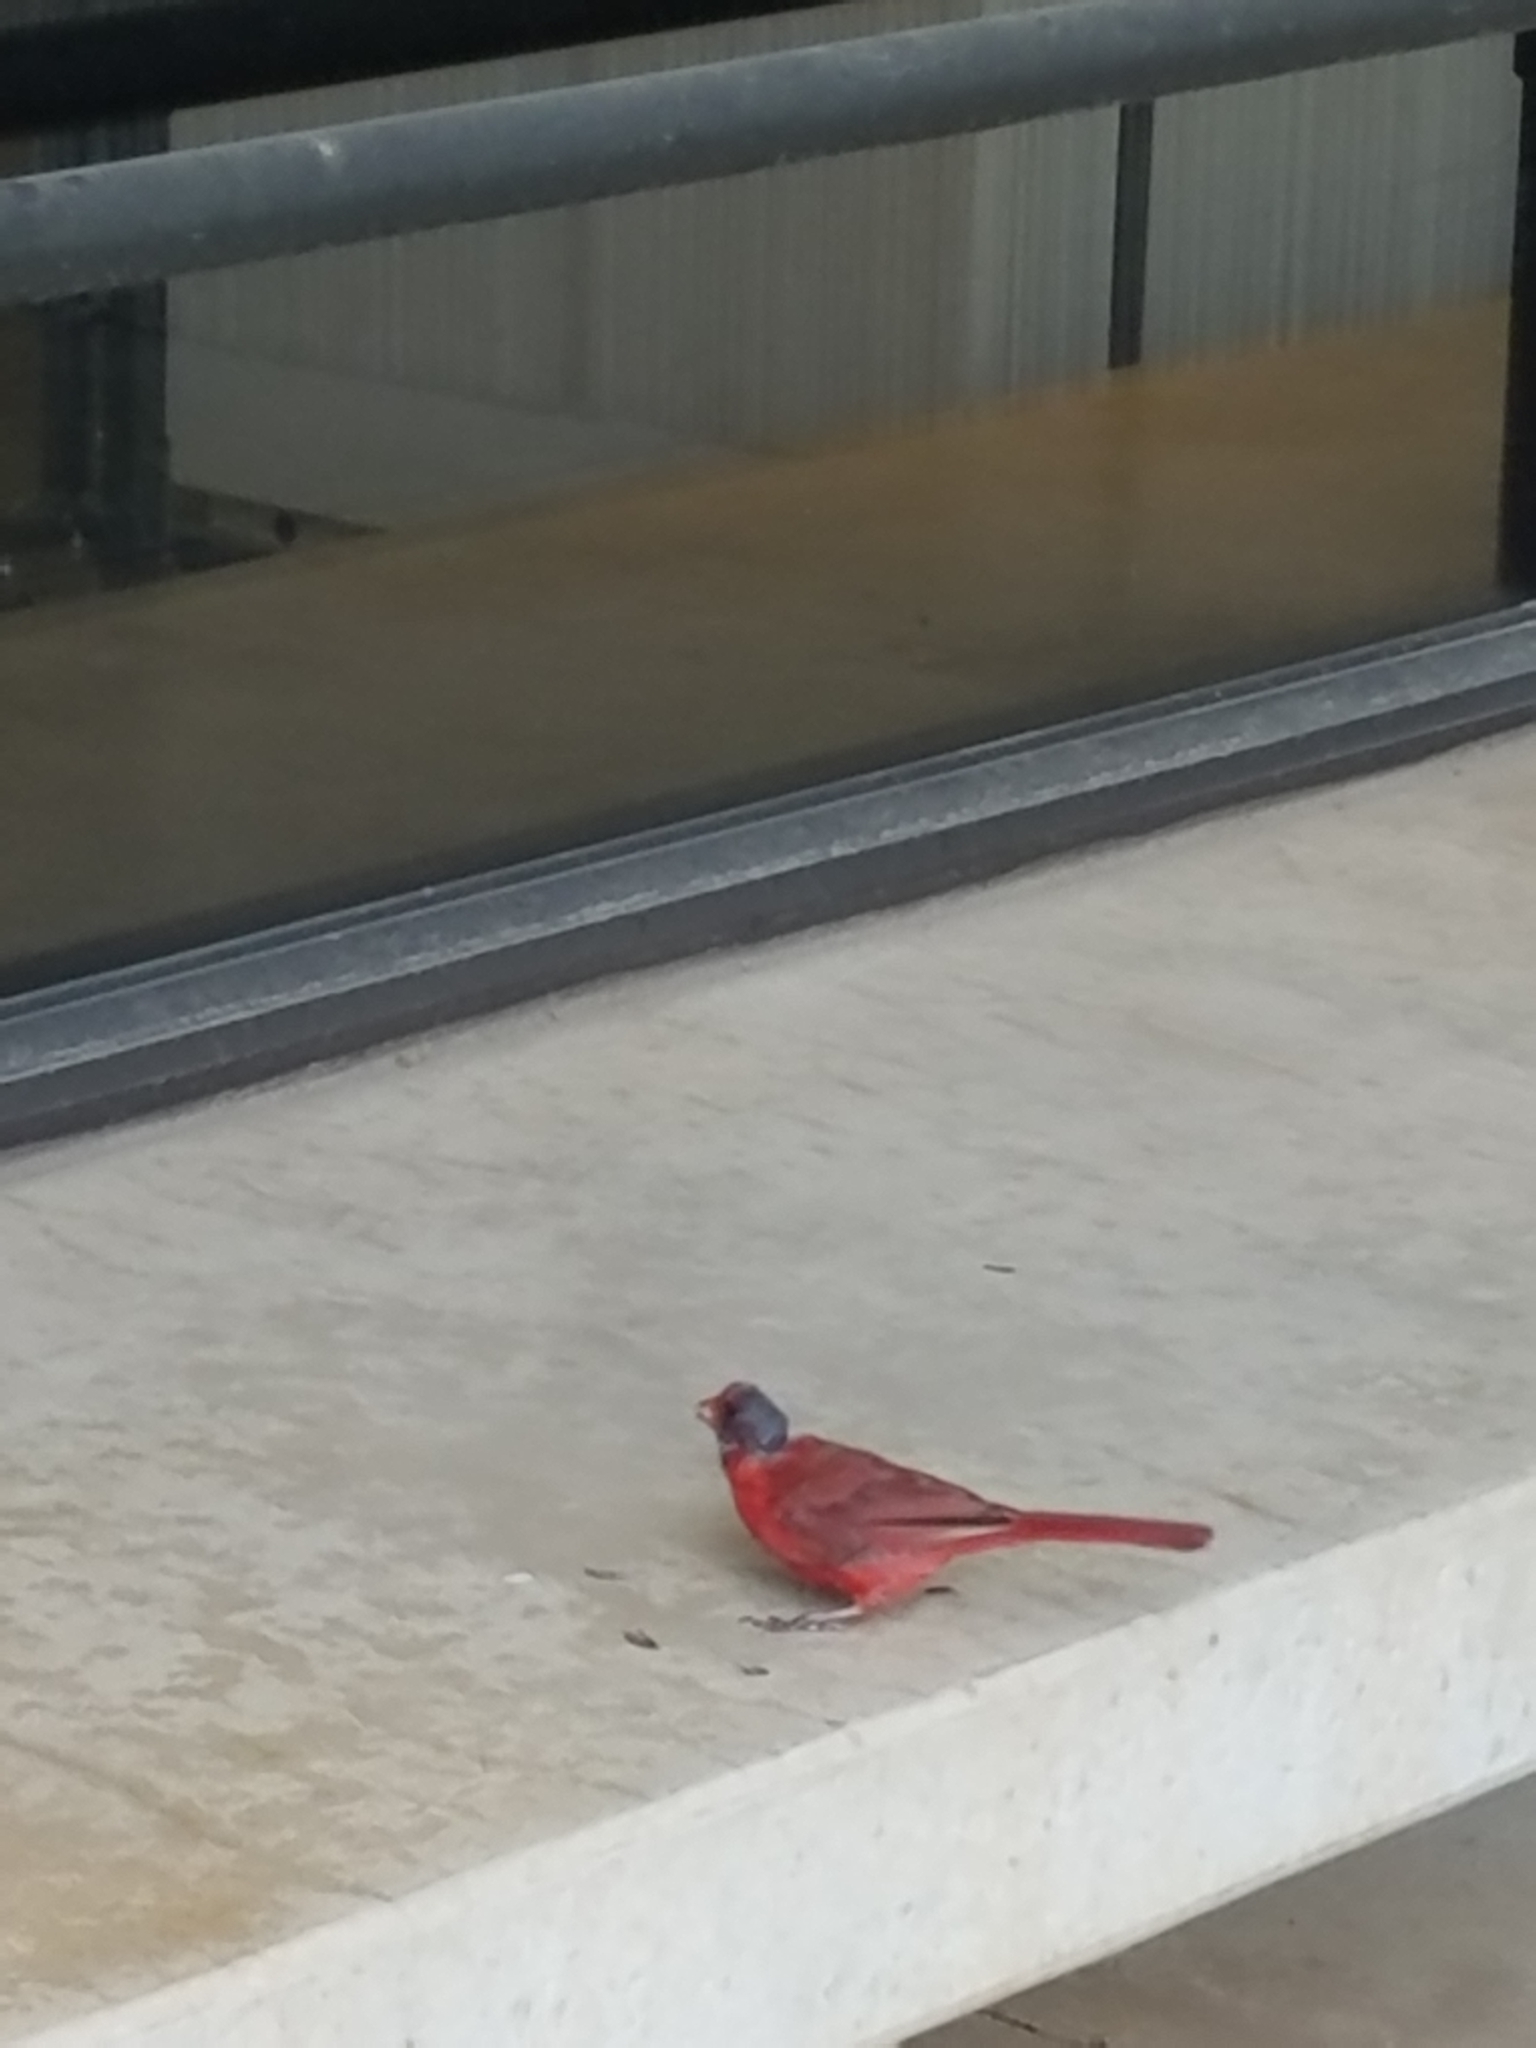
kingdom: Animalia
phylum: Chordata
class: Aves
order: Passeriformes
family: Cardinalidae
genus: Cardinalis
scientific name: Cardinalis cardinalis
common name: Northern cardinal
